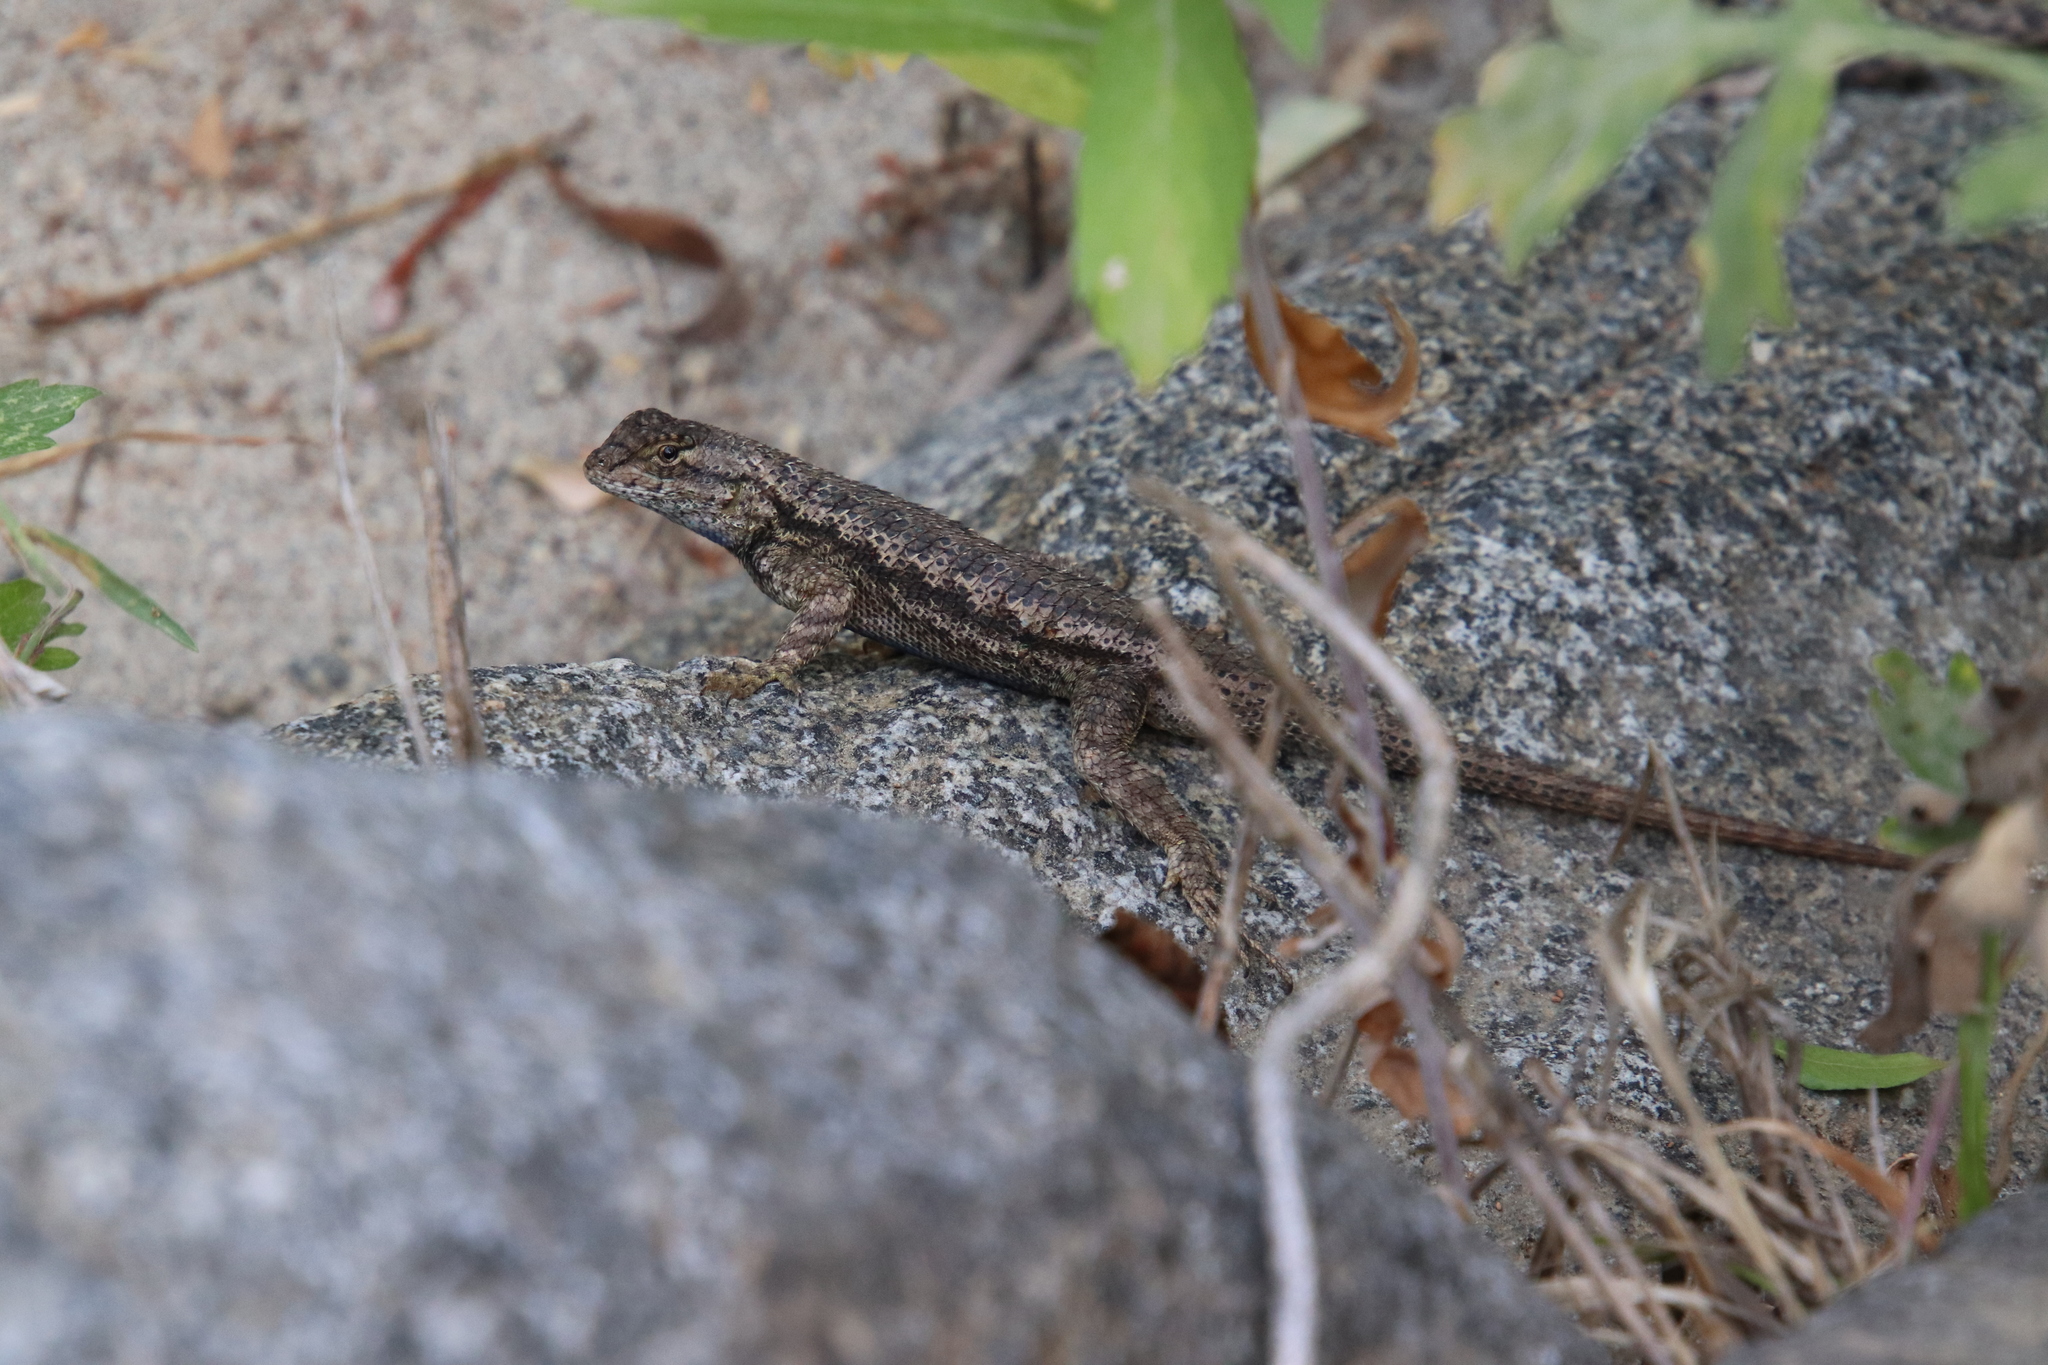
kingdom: Animalia
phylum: Chordata
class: Squamata
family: Phrynosomatidae
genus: Sceloporus
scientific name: Sceloporus occidentalis
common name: Western fence lizard
